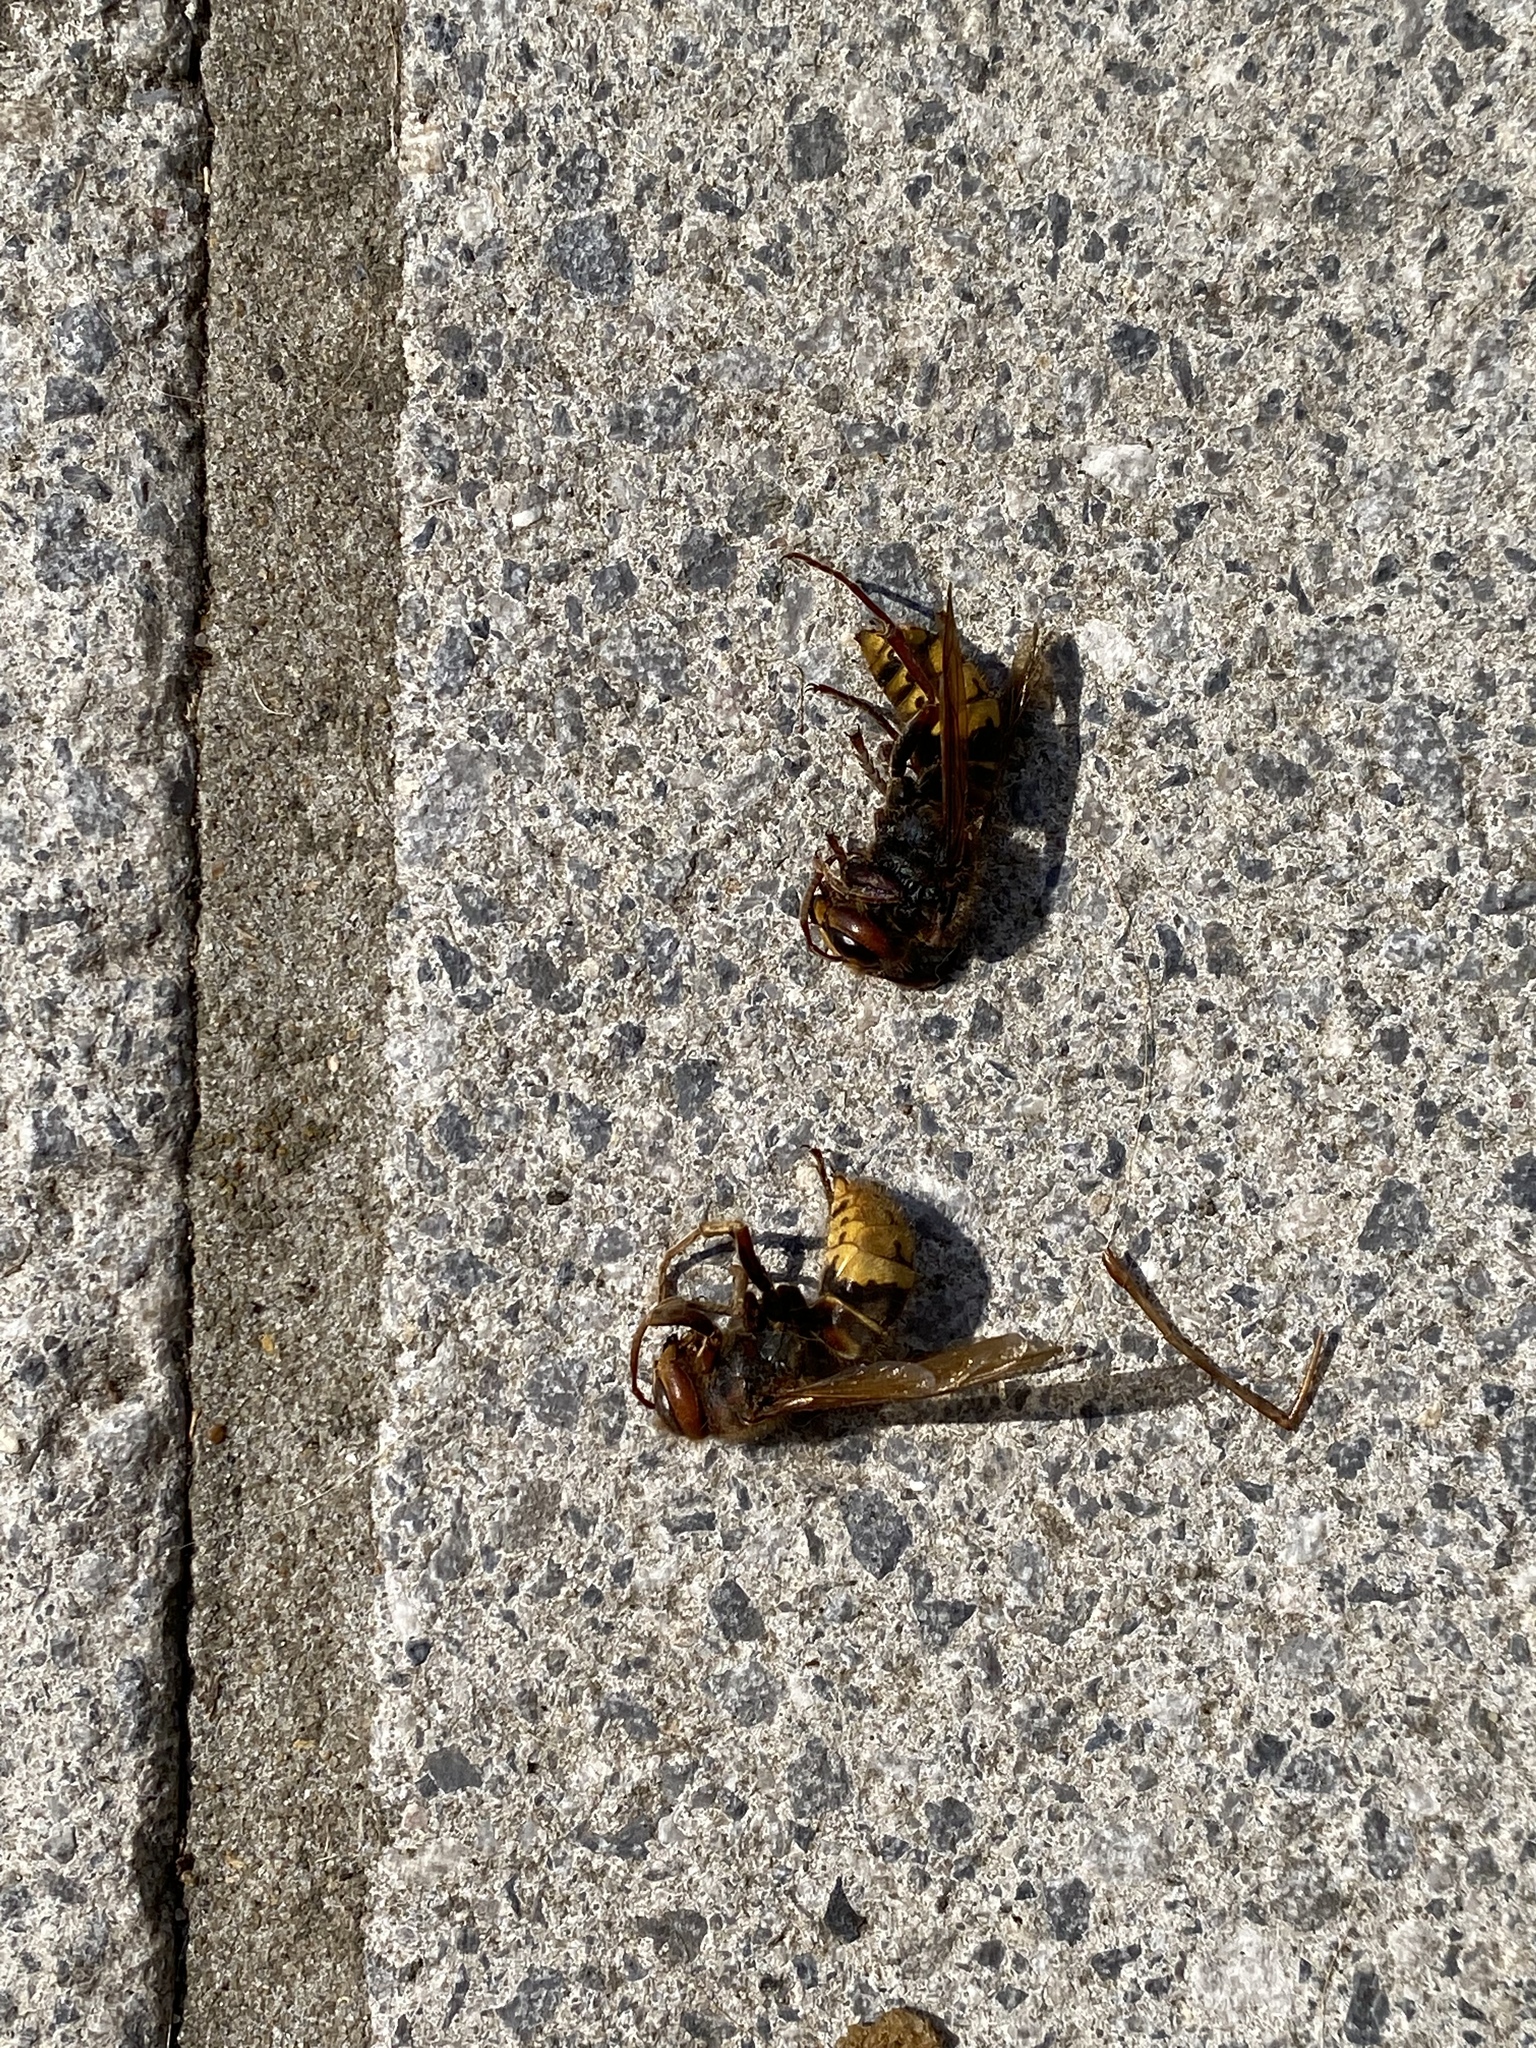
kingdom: Animalia
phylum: Arthropoda
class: Insecta
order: Hymenoptera
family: Vespidae
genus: Vespa
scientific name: Vespa crabro
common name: Hornet
